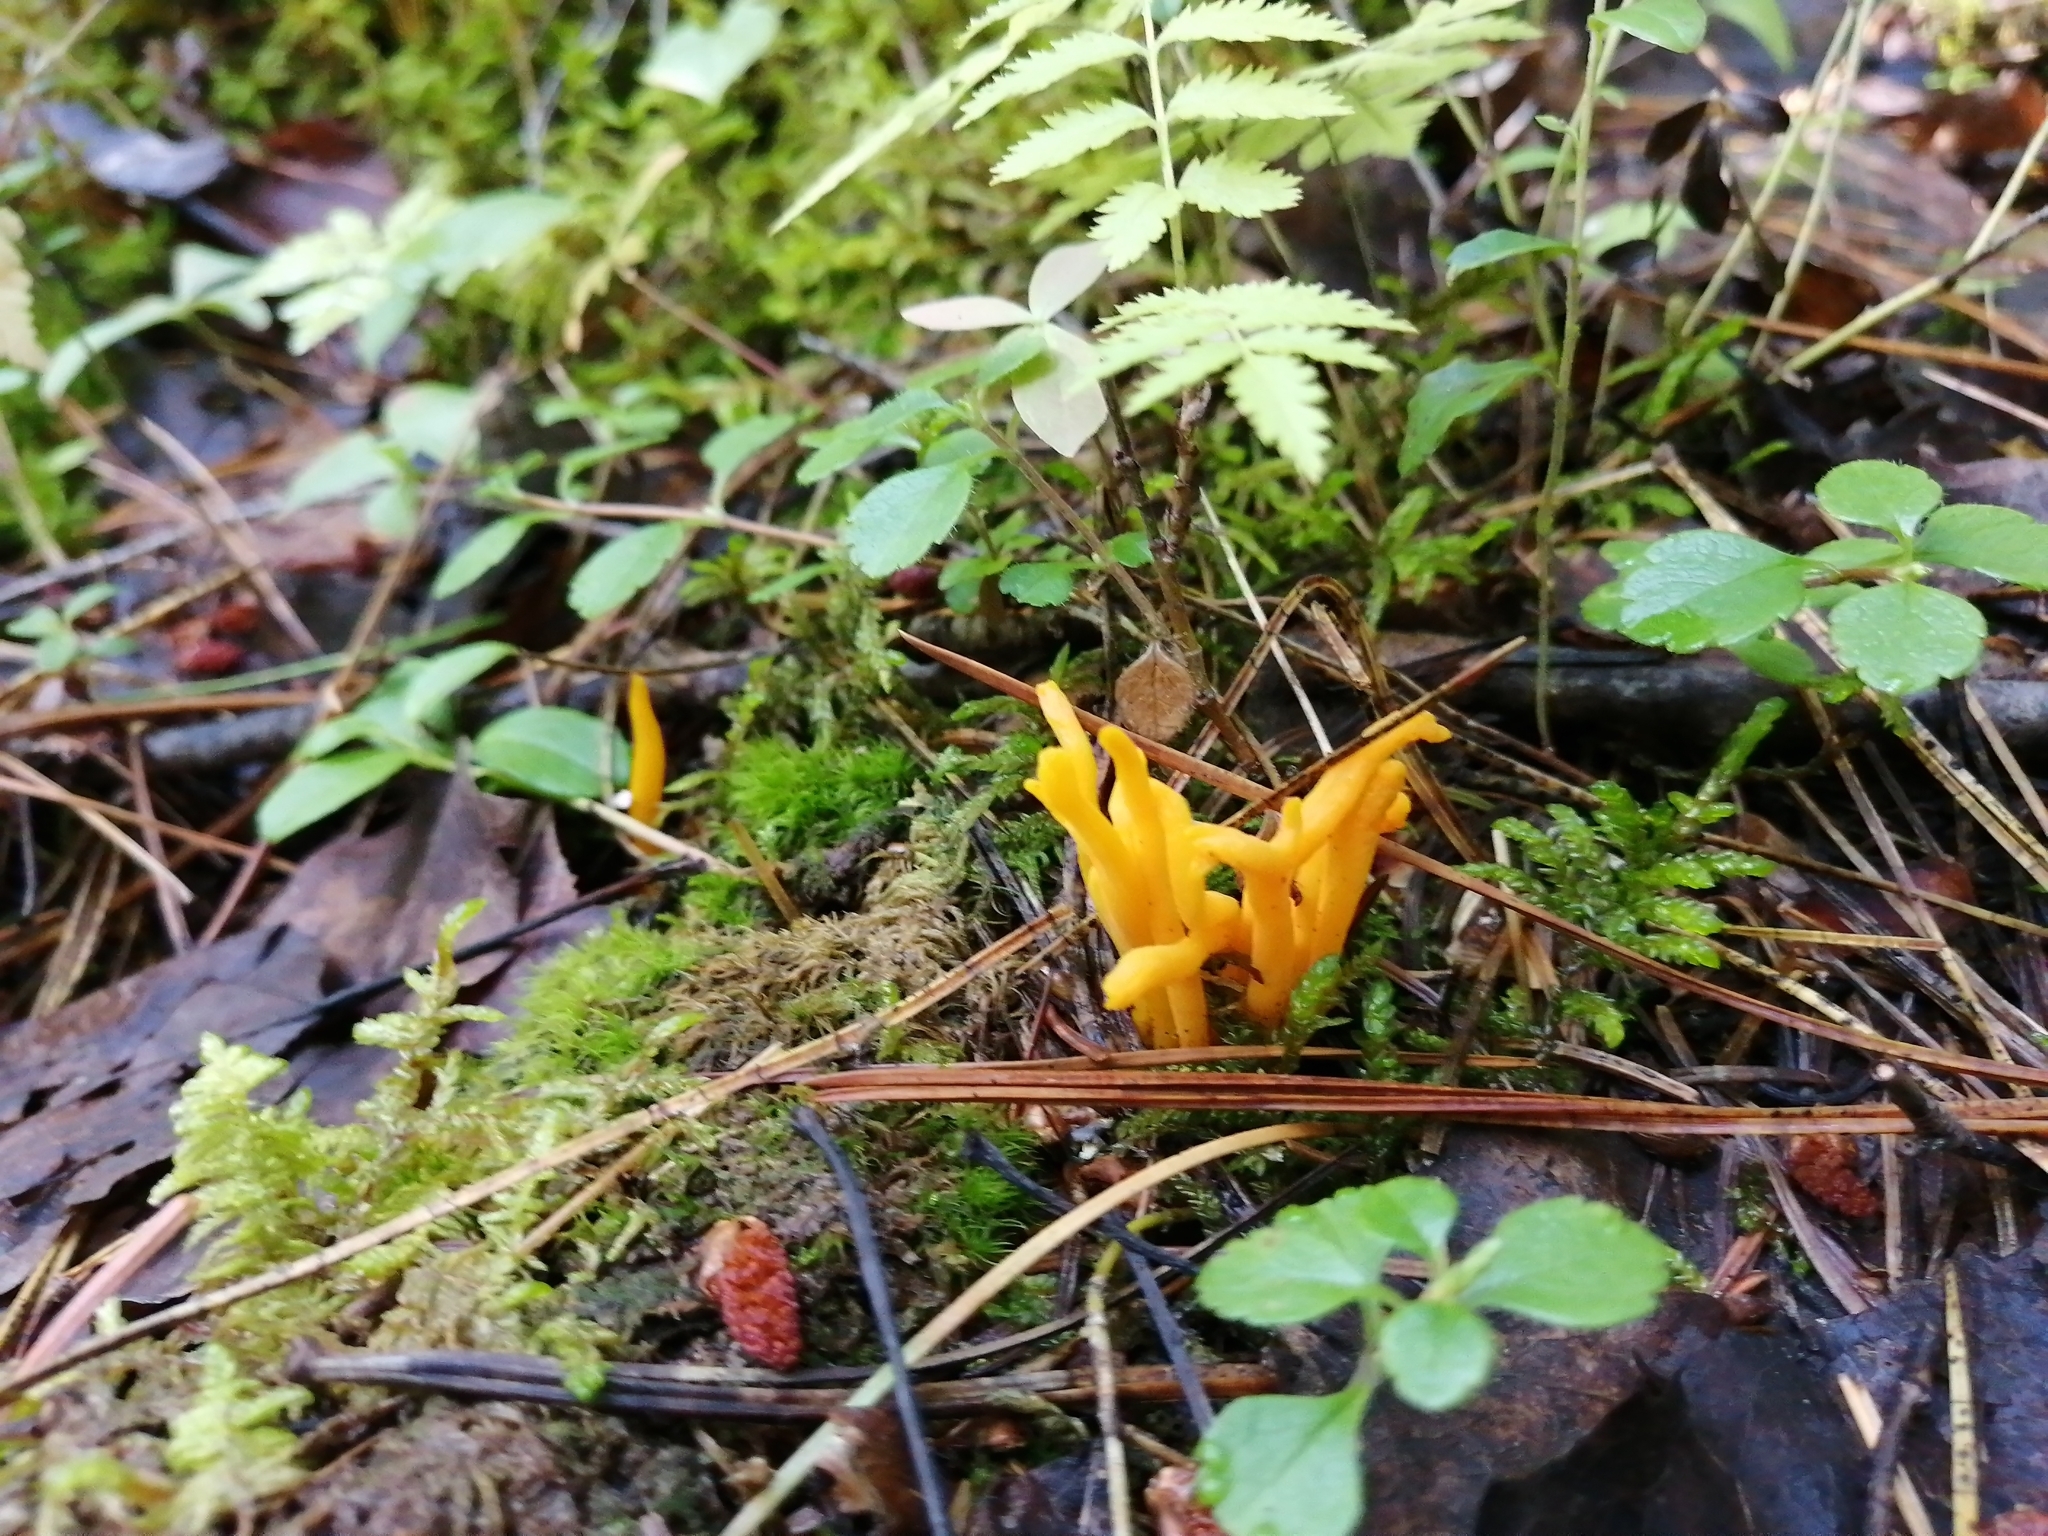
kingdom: Fungi
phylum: Basidiomycota
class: Dacrymycetes
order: Dacrymycetales
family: Dacrymycetaceae
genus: Calocera
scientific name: Calocera viscosa
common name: Yellow stagshorn
